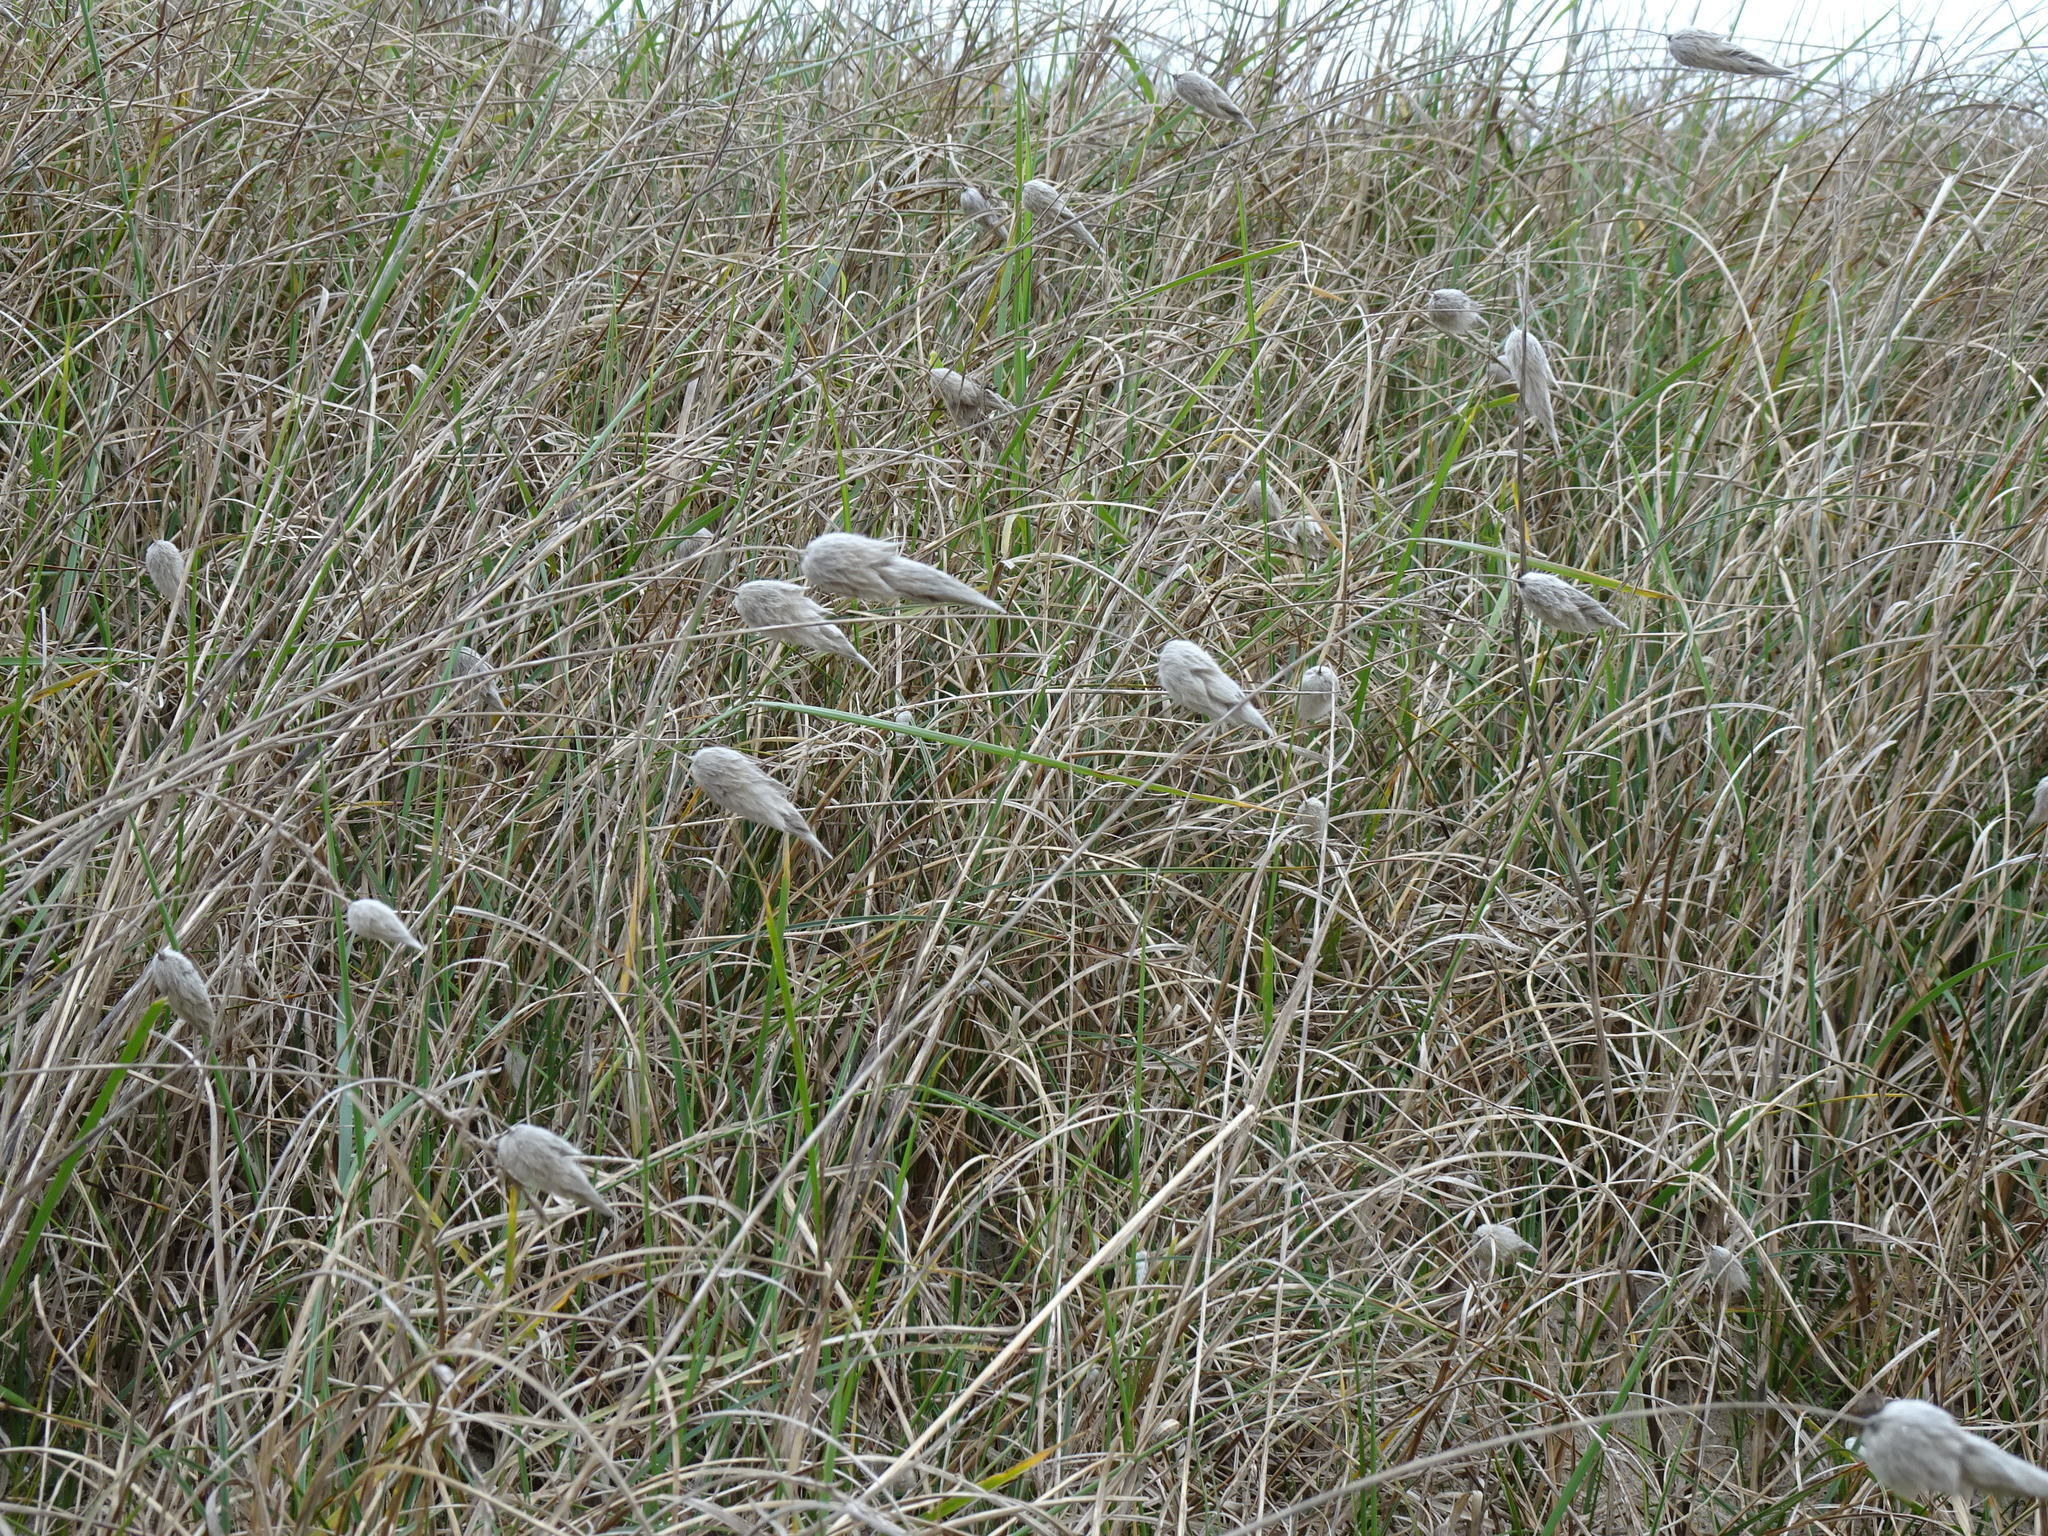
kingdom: Plantae
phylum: Tracheophyta
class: Liliopsida
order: Poales
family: Poaceae
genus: Lagurus
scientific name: Lagurus ovatus
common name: Hare's-tail
